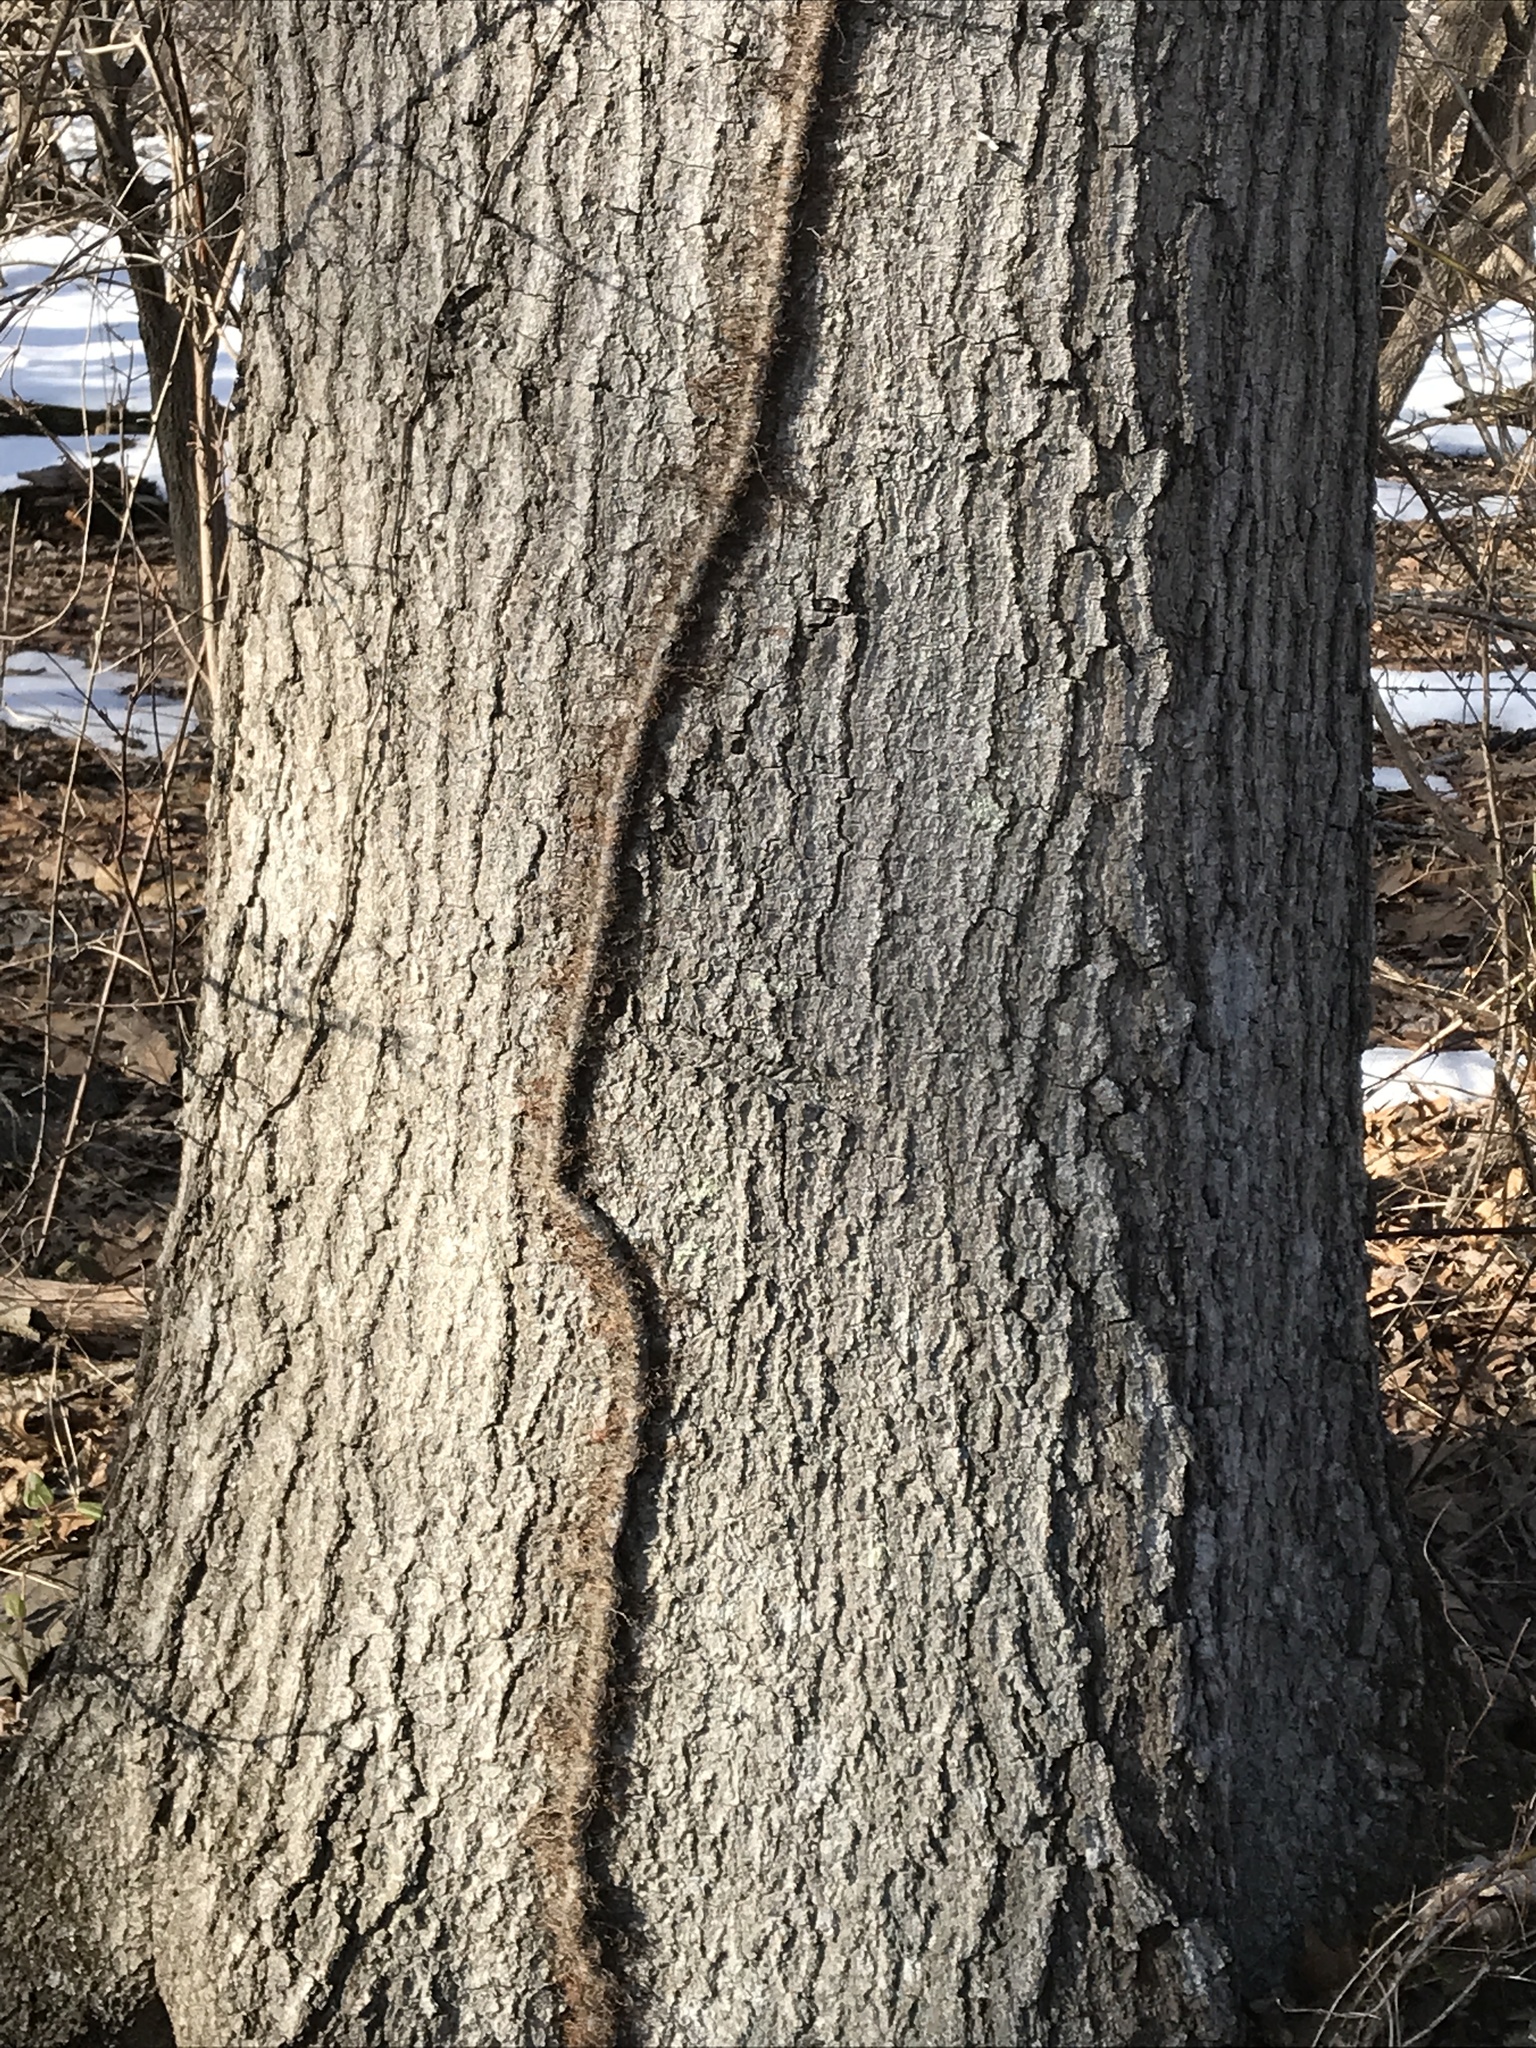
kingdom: Plantae
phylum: Tracheophyta
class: Magnoliopsida
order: Sapindales
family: Anacardiaceae
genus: Toxicodendron
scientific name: Toxicodendron radicans
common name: Poison ivy
